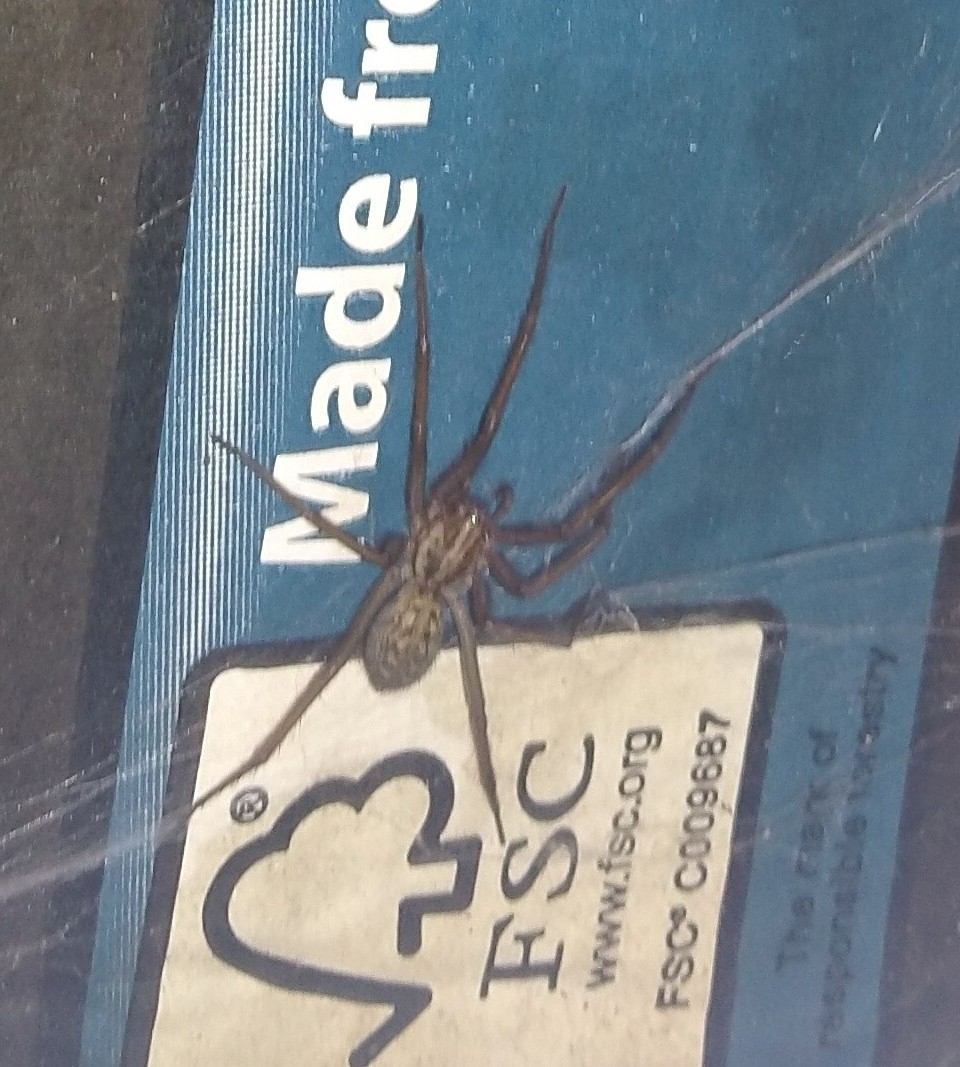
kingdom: Animalia
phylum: Arthropoda
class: Arachnida
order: Araneae
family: Agelenidae
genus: Eratigena
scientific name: Eratigena atrica
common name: Giant house spider
